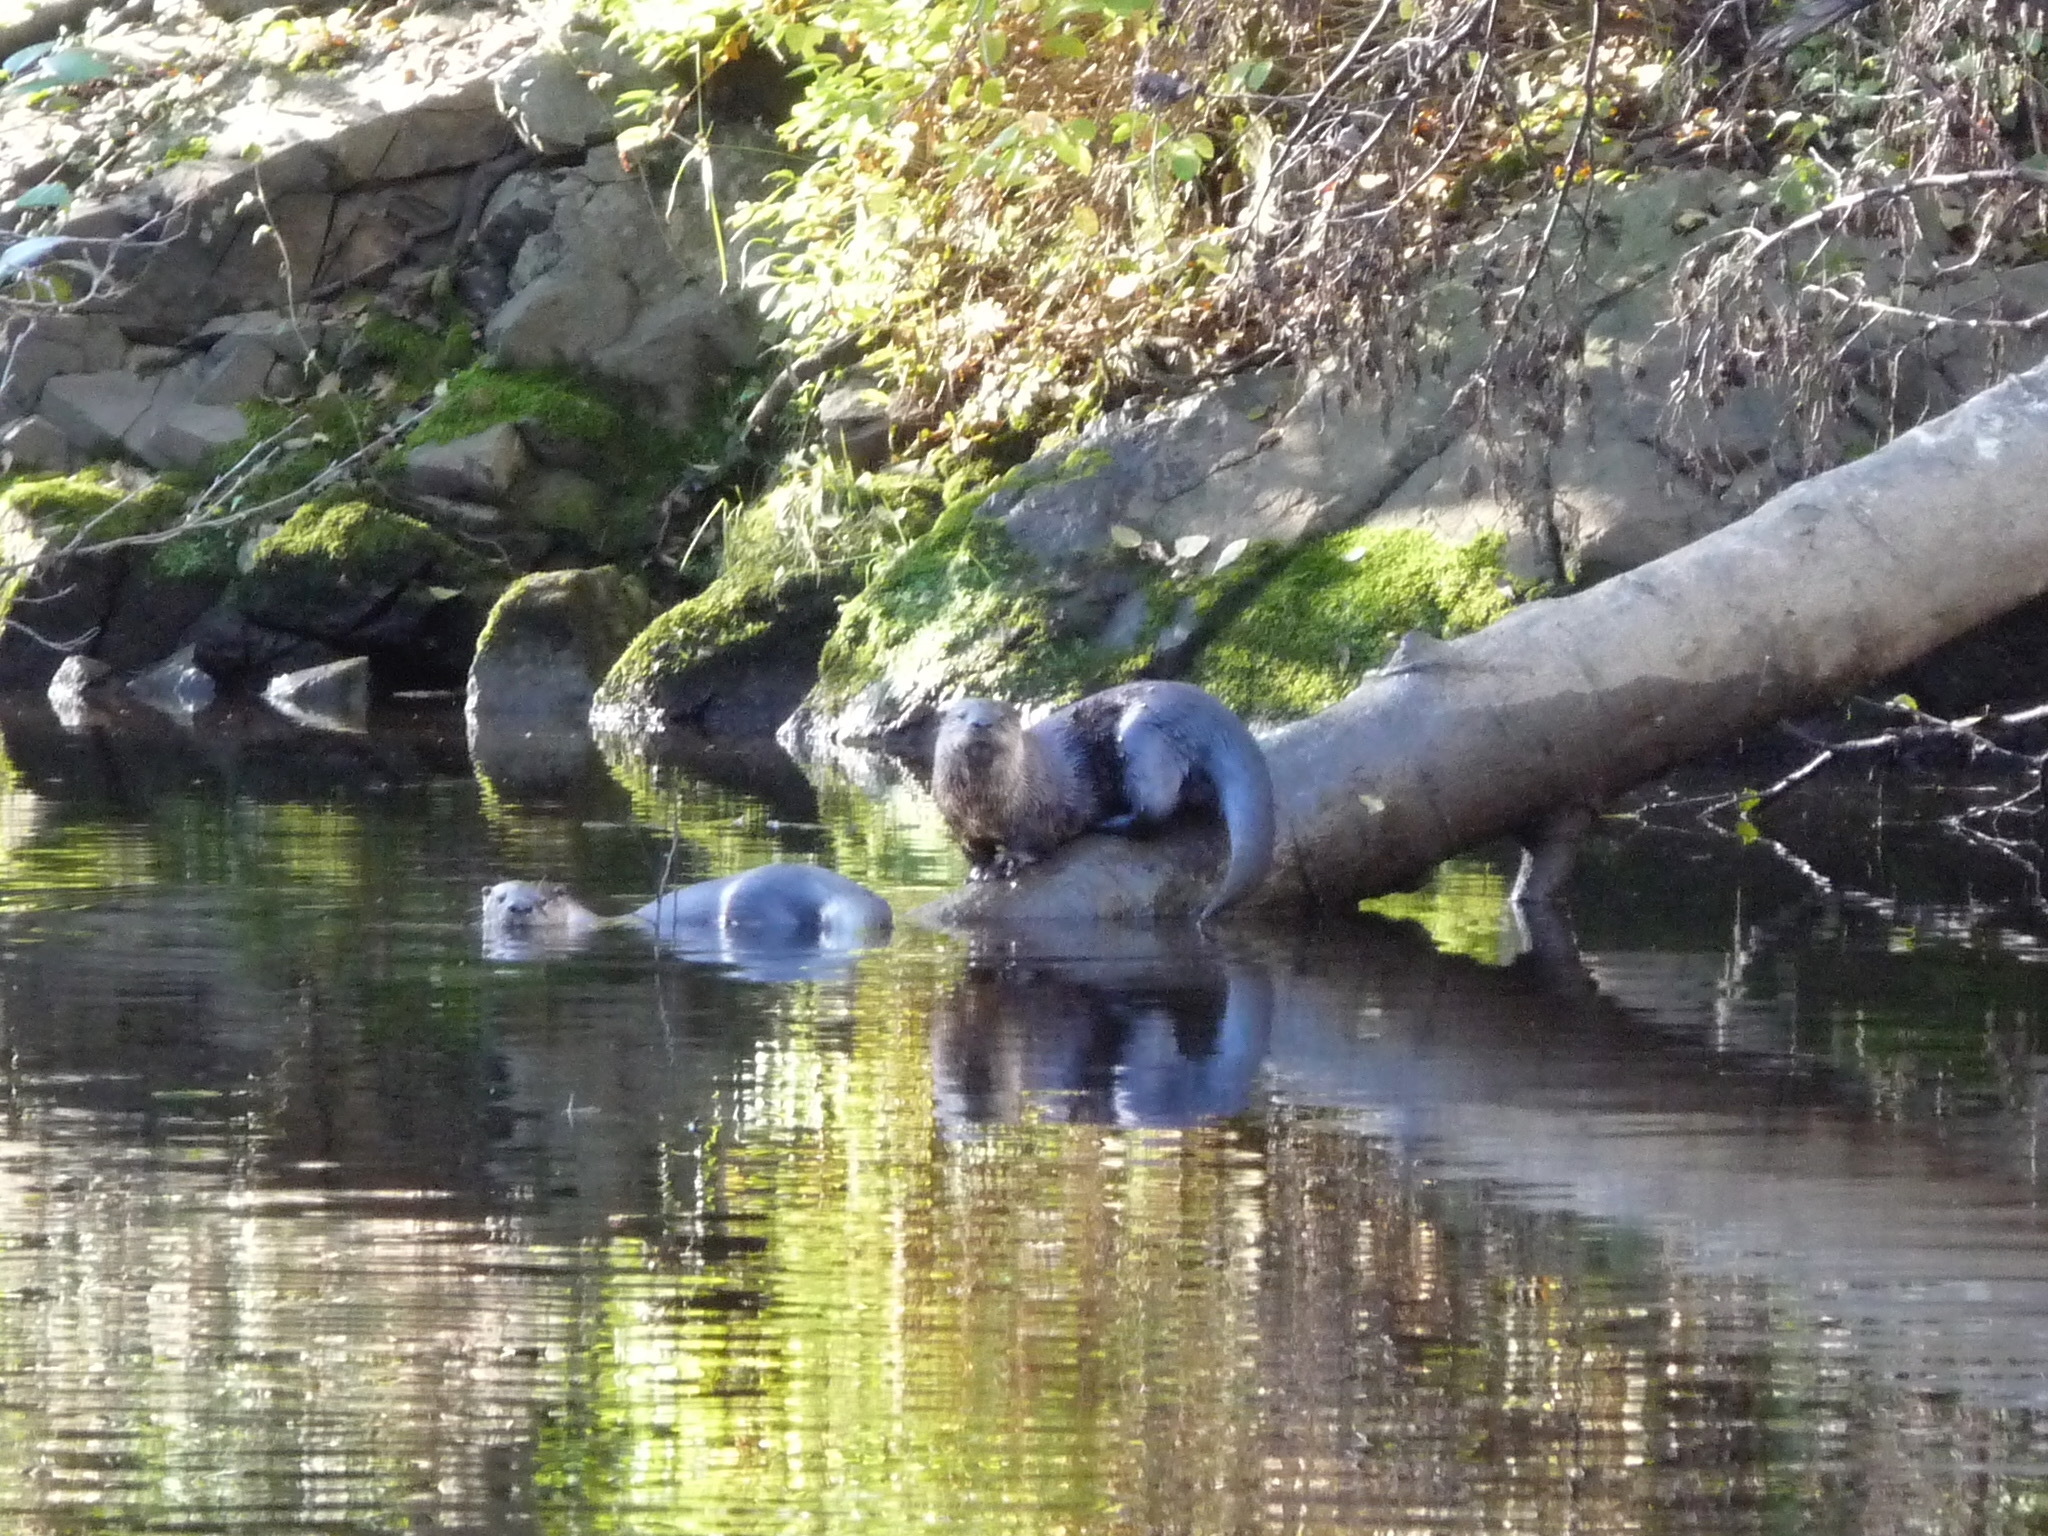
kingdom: Animalia
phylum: Chordata
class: Mammalia
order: Carnivora
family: Mustelidae
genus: Lontra
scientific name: Lontra canadensis
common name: North american river otter
